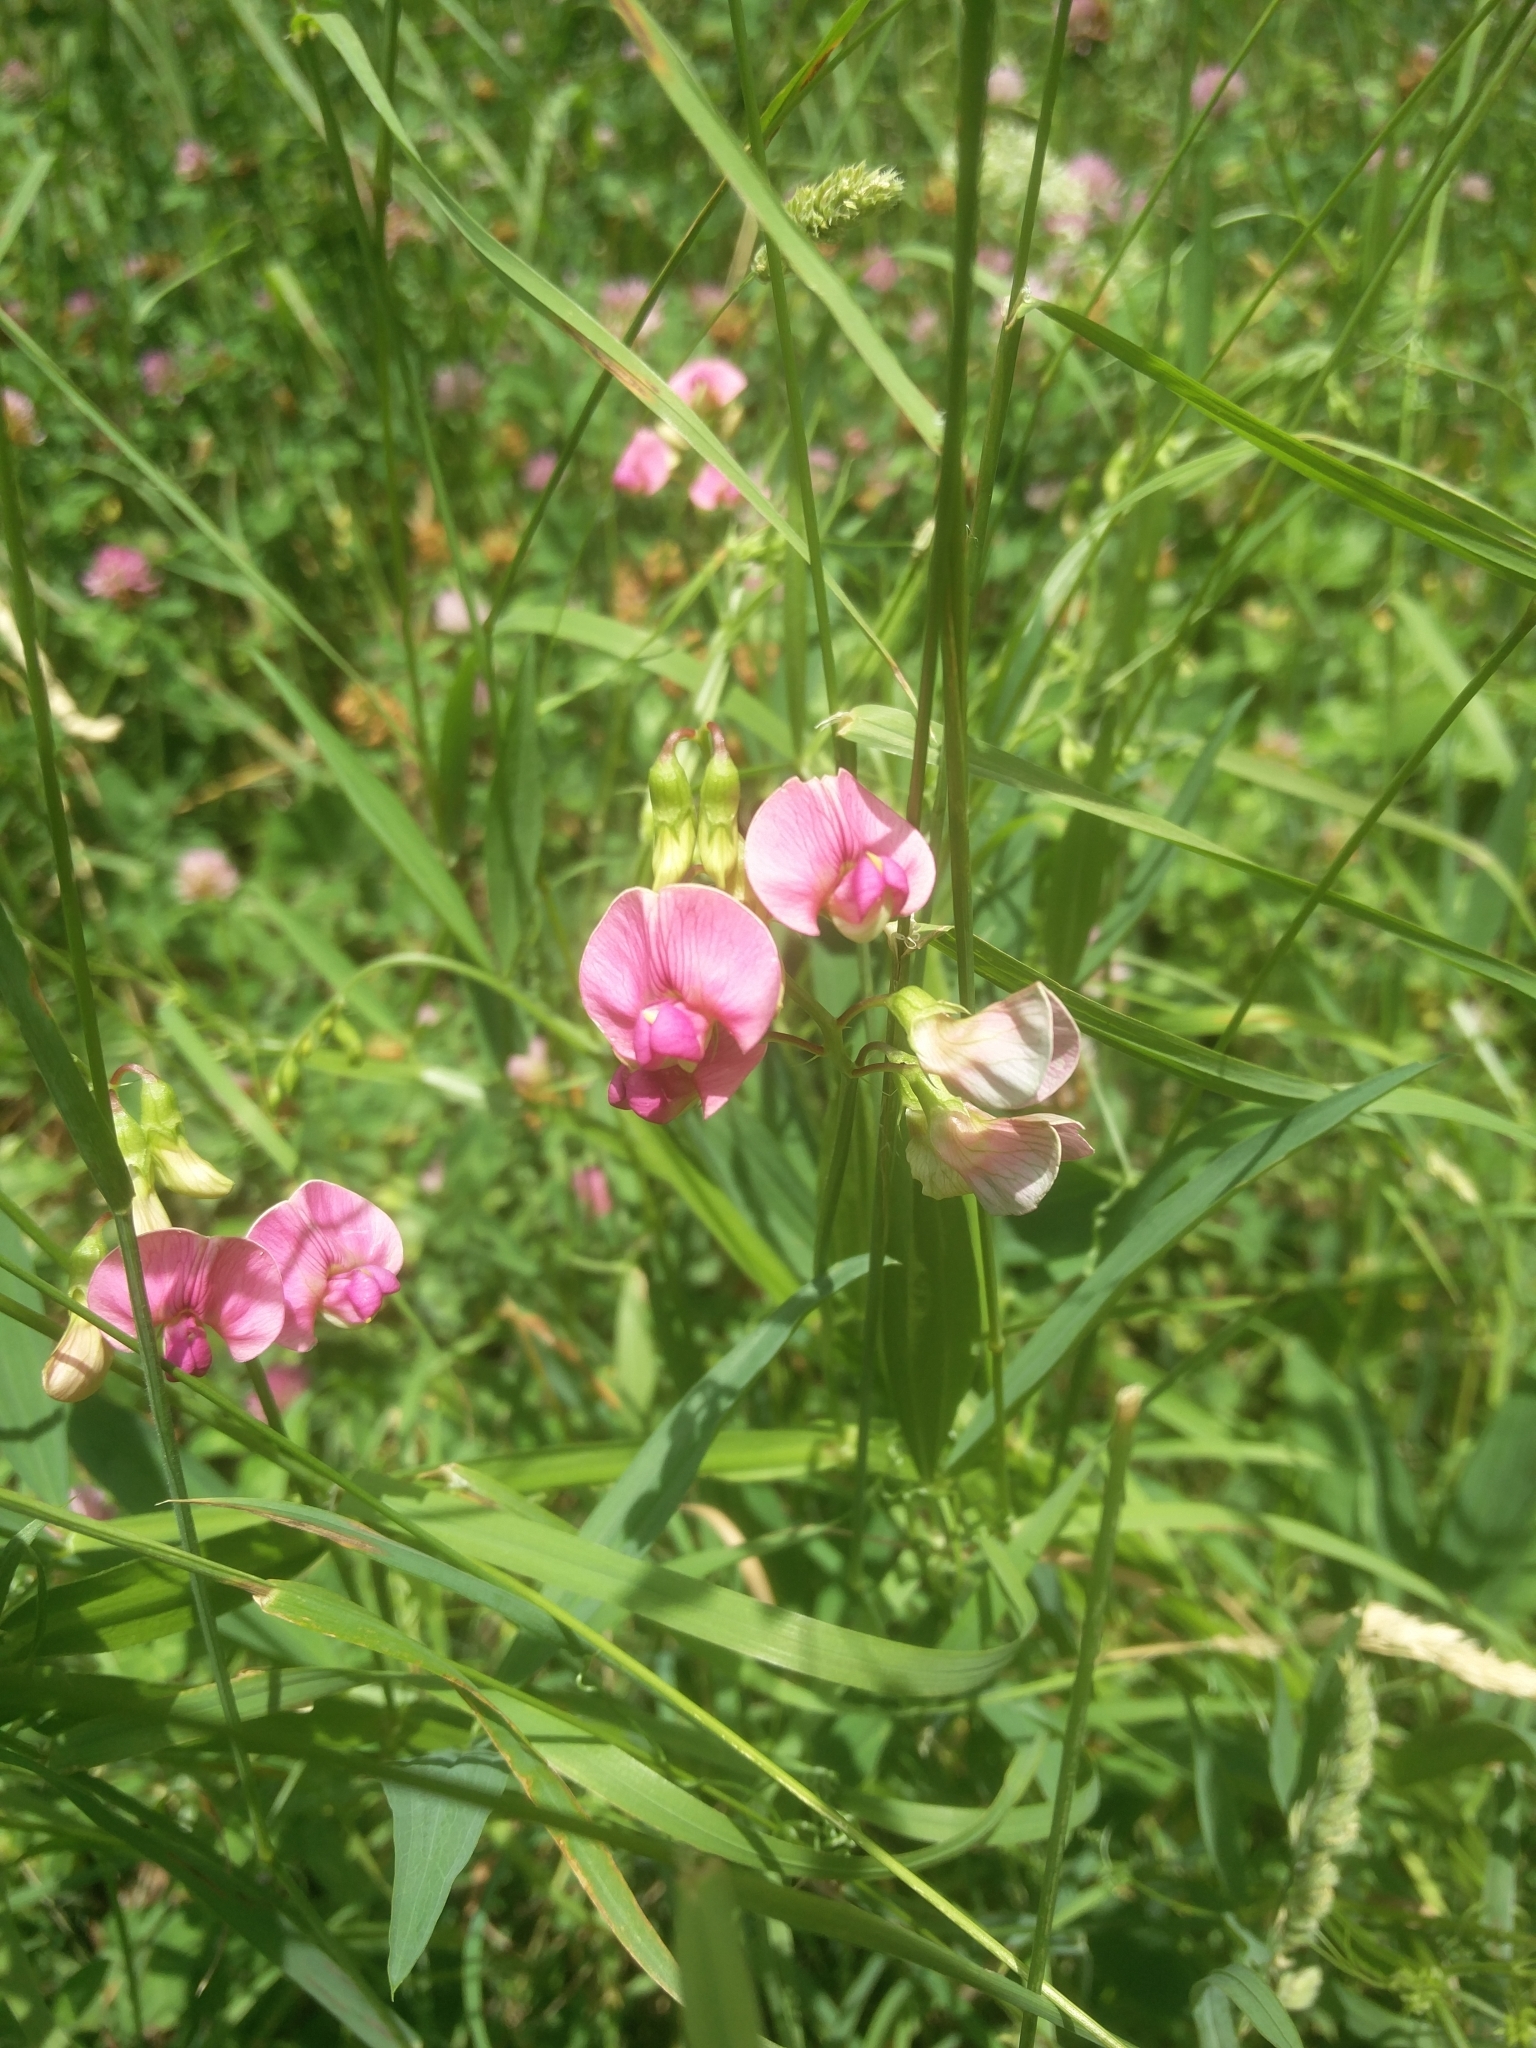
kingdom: Plantae
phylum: Tracheophyta
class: Magnoliopsida
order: Fabales
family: Fabaceae
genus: Lathyrus
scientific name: Lathyrus sylvestris
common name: Flat pea
